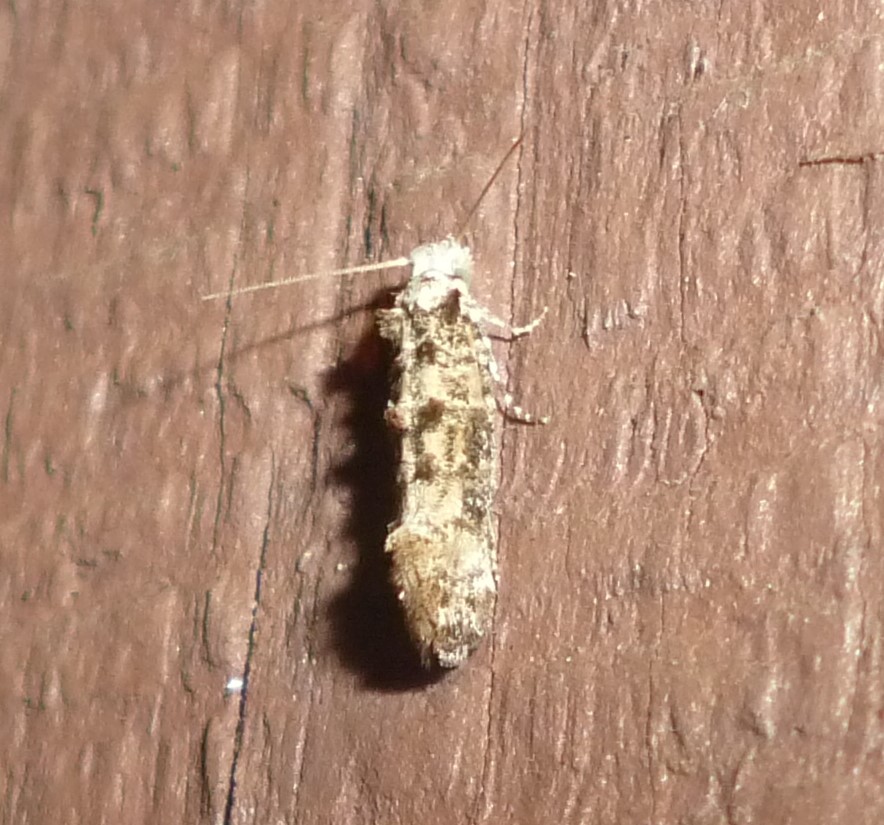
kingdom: Animalia
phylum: Arthropoda
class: Insecta
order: Lepidoptera
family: Tineidae
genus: Xylesthia
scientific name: Xylesthia pruniramiella
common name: Clemens' bark moth
